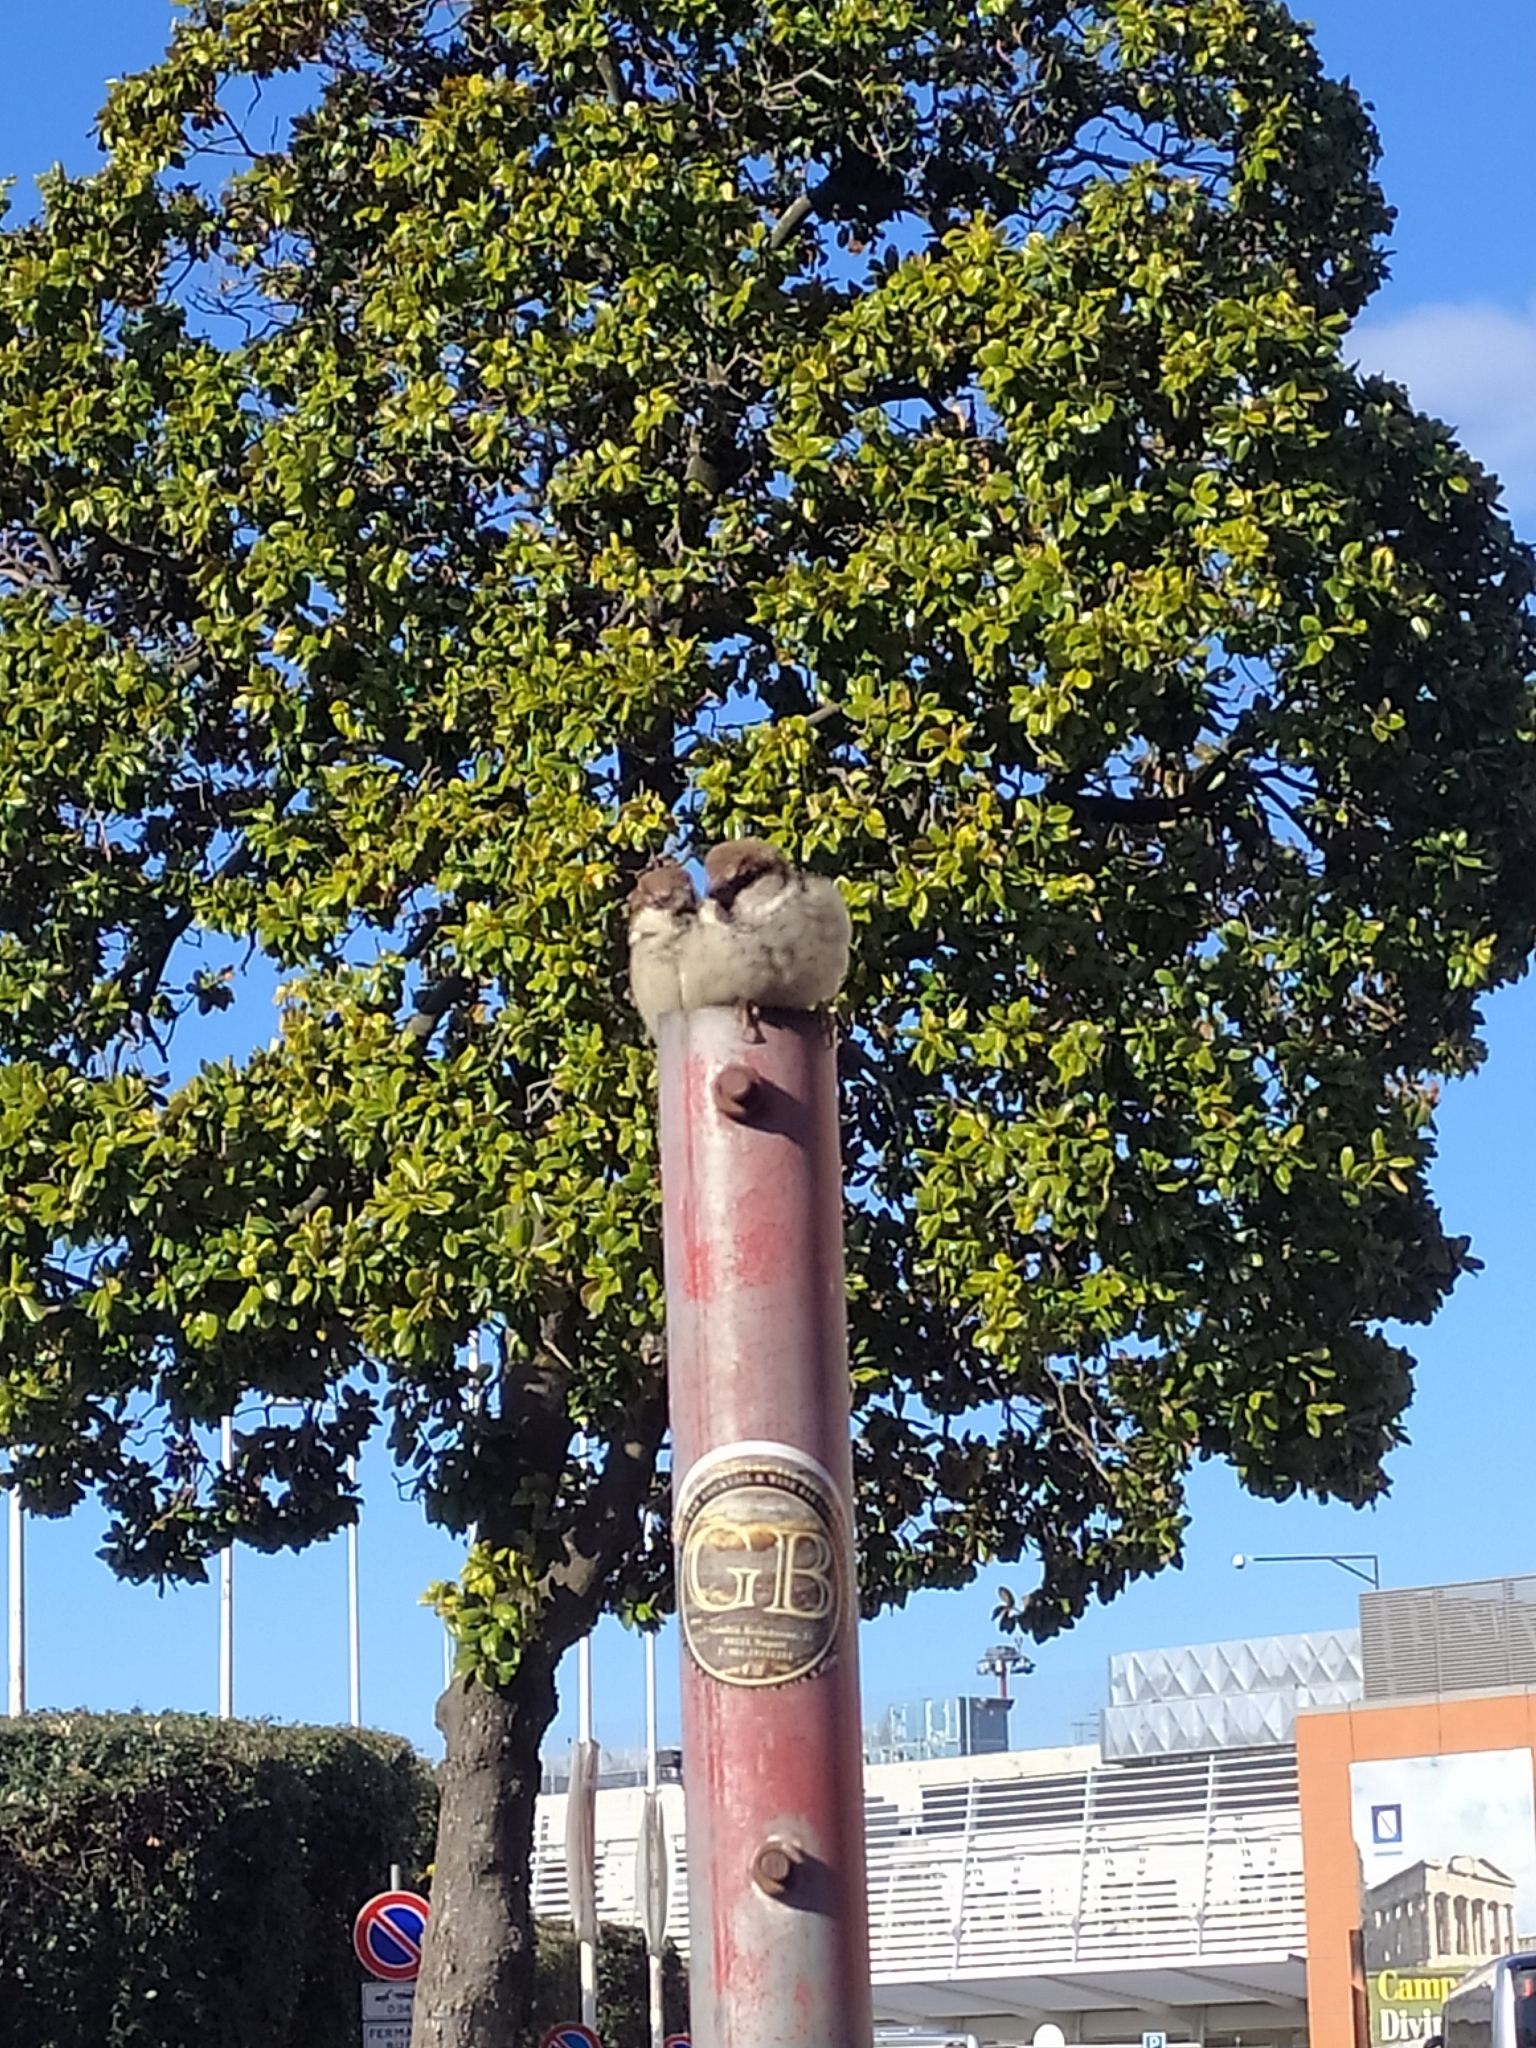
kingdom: Animalia
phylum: Chordata
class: Aves
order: Passeriformes
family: Passeridae
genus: Passer
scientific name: Passer italiae
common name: Italian sparrow
